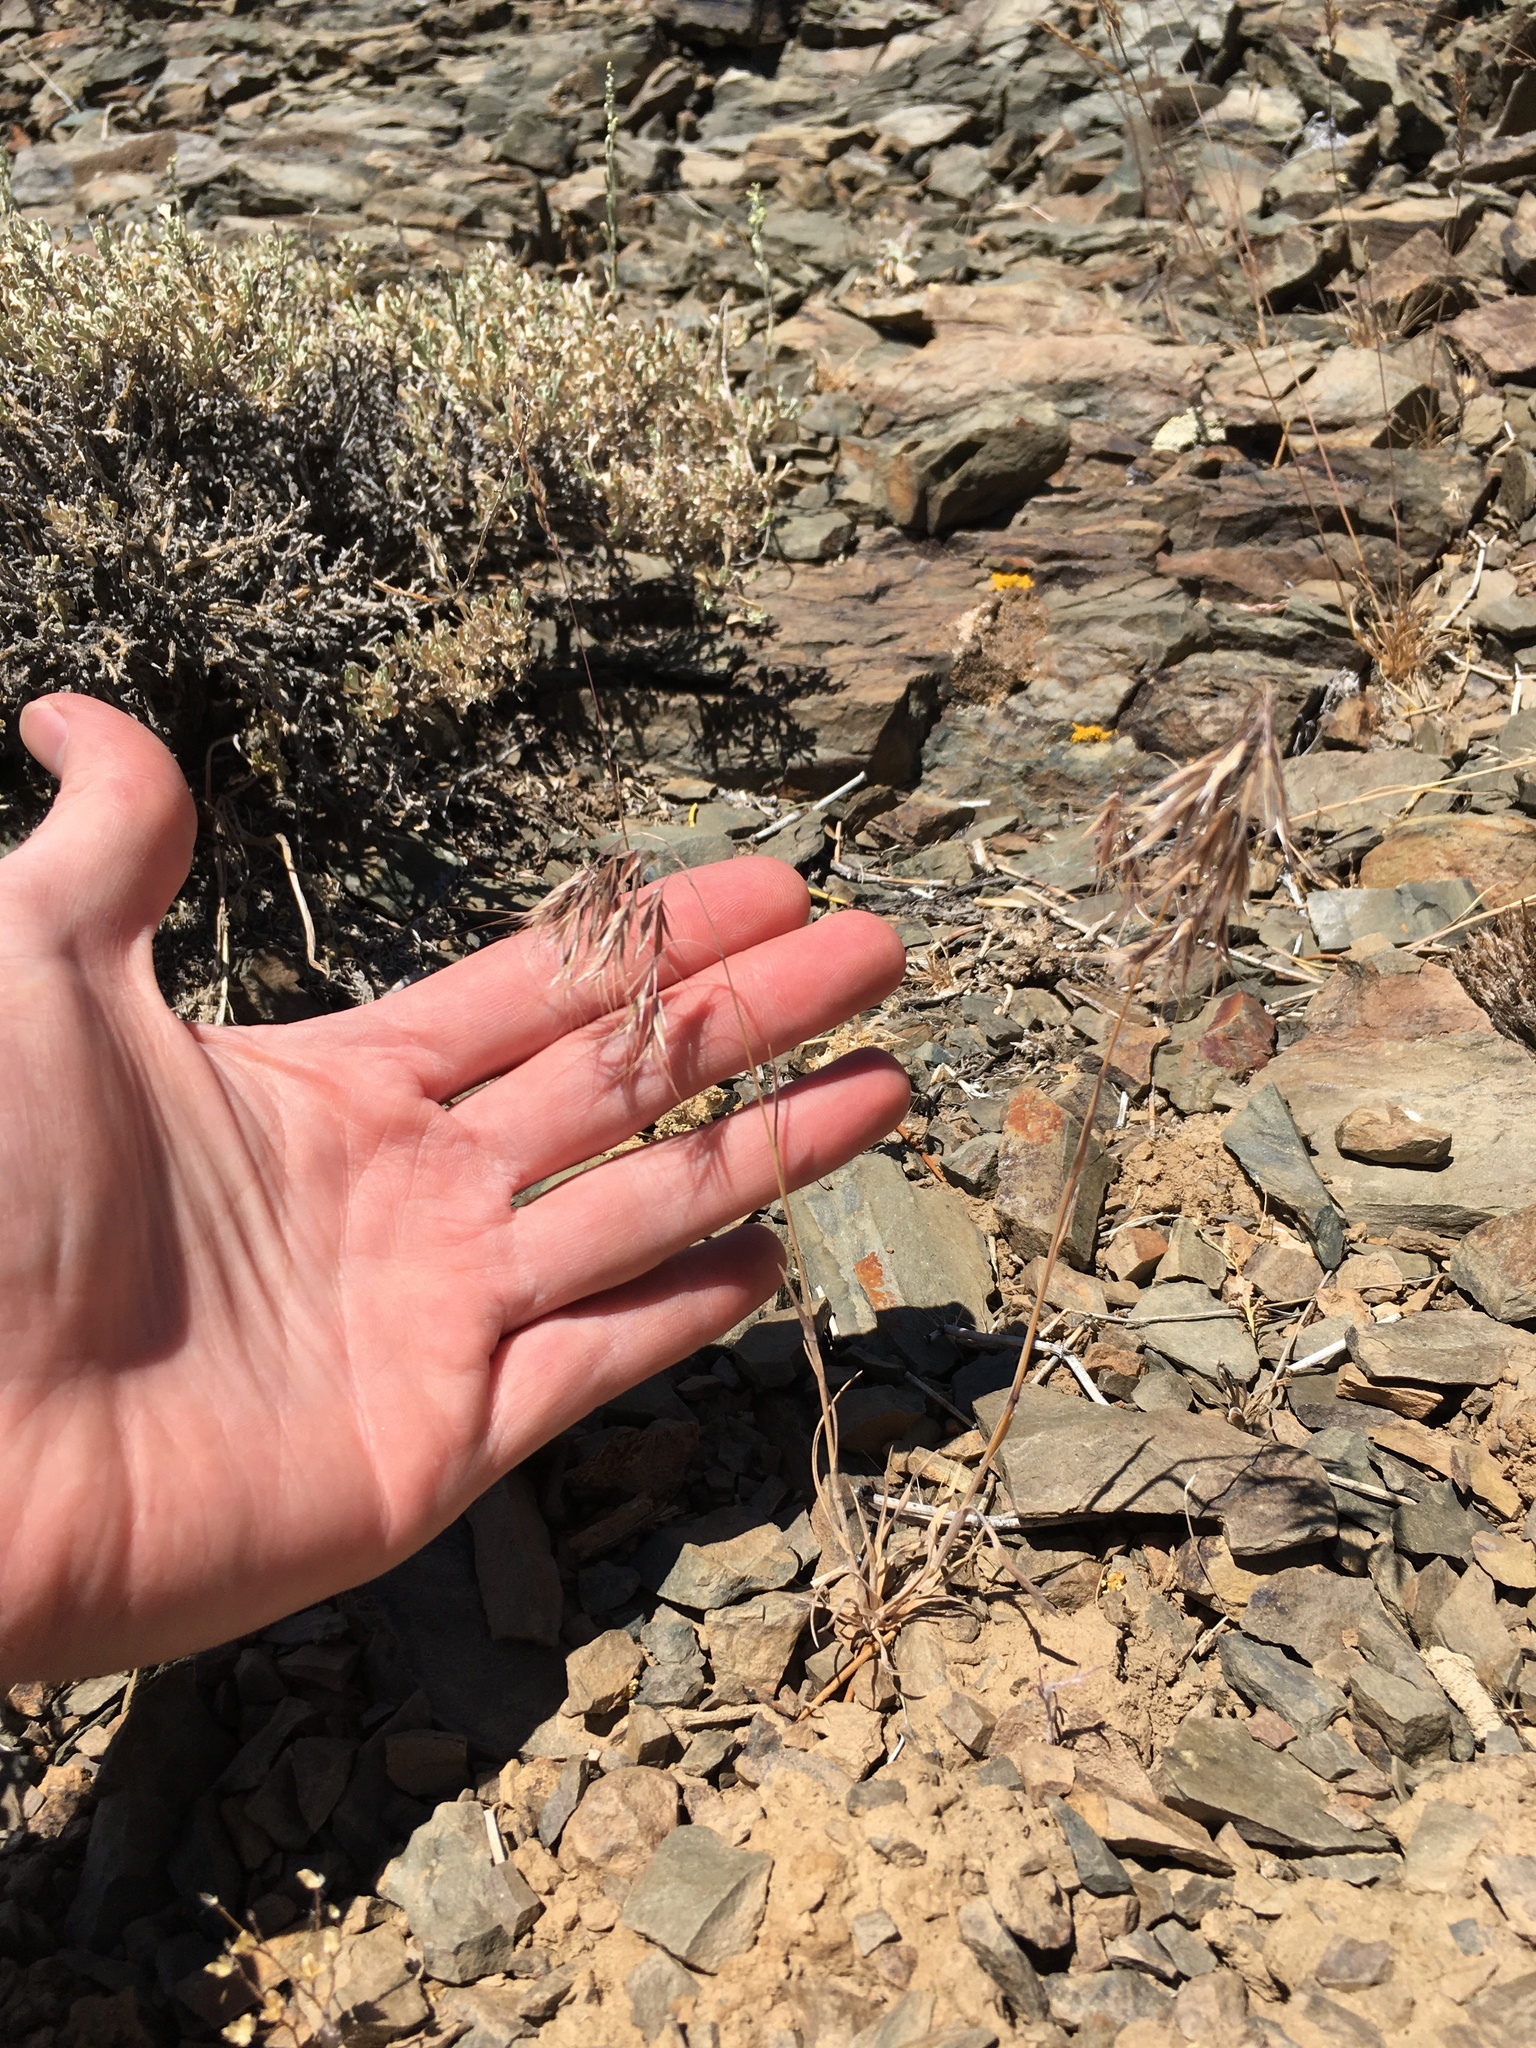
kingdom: Plantae
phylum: Tracheophyta
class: Liliopsida
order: Poales
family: Poaceae
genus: Bromus
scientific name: Bromus tectorum
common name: Cheatgrass
